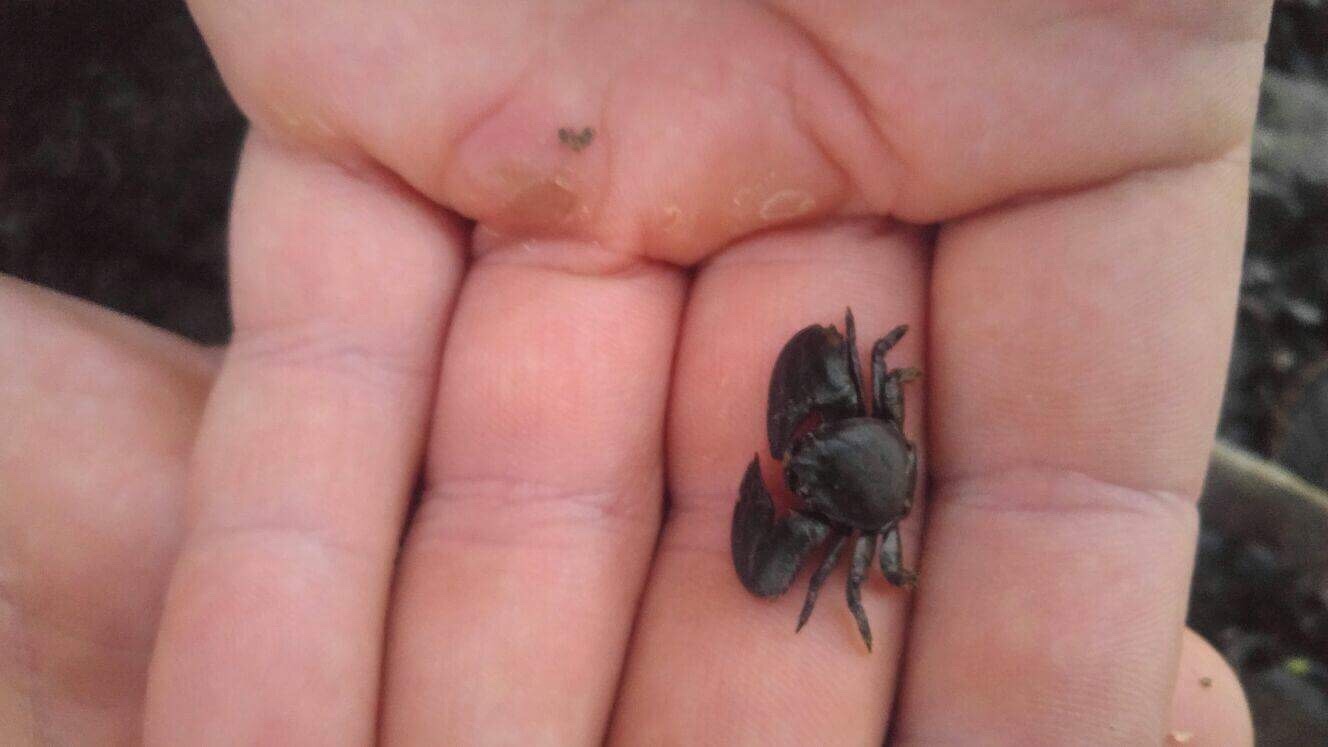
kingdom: Animalia
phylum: Arthropoda
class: Malacostraca
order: Decapoda
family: Porcellanidae
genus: Petrolisthes
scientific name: Petrolisthes elongatus
